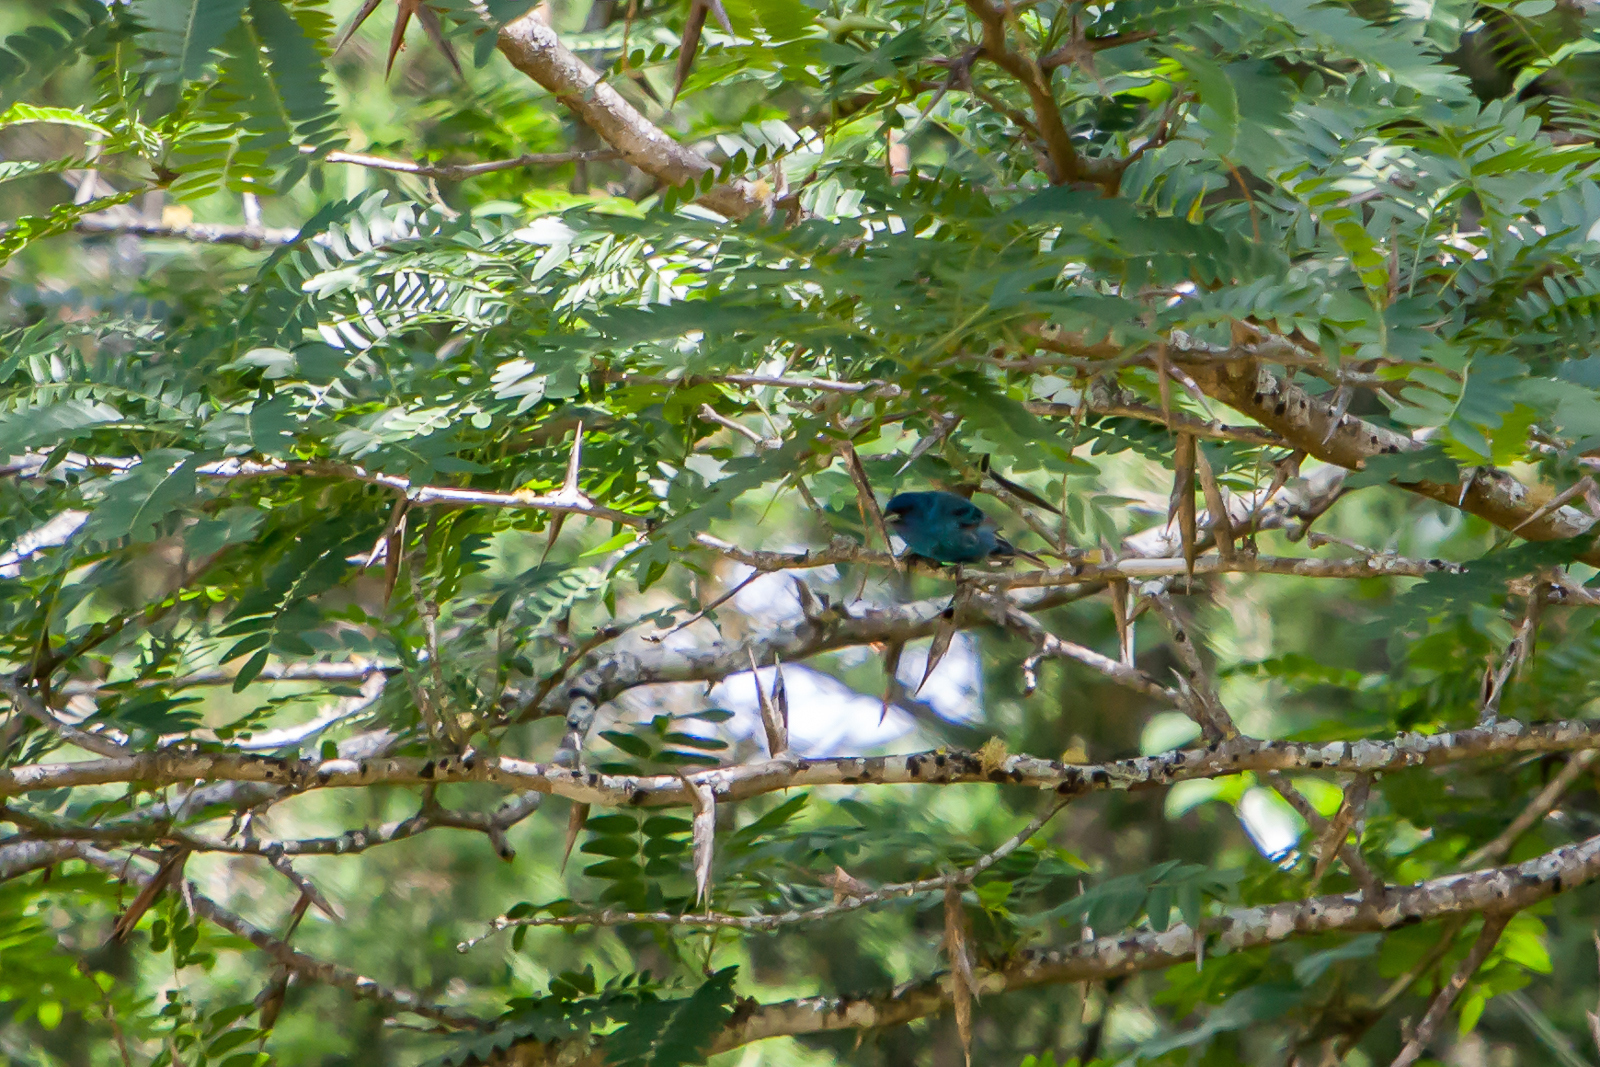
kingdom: Animalia
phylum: Chordata
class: Aves
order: Passeriformes
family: Cardinalidae
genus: Passerina
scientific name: Passerina cyanea
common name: Indigo bunting
